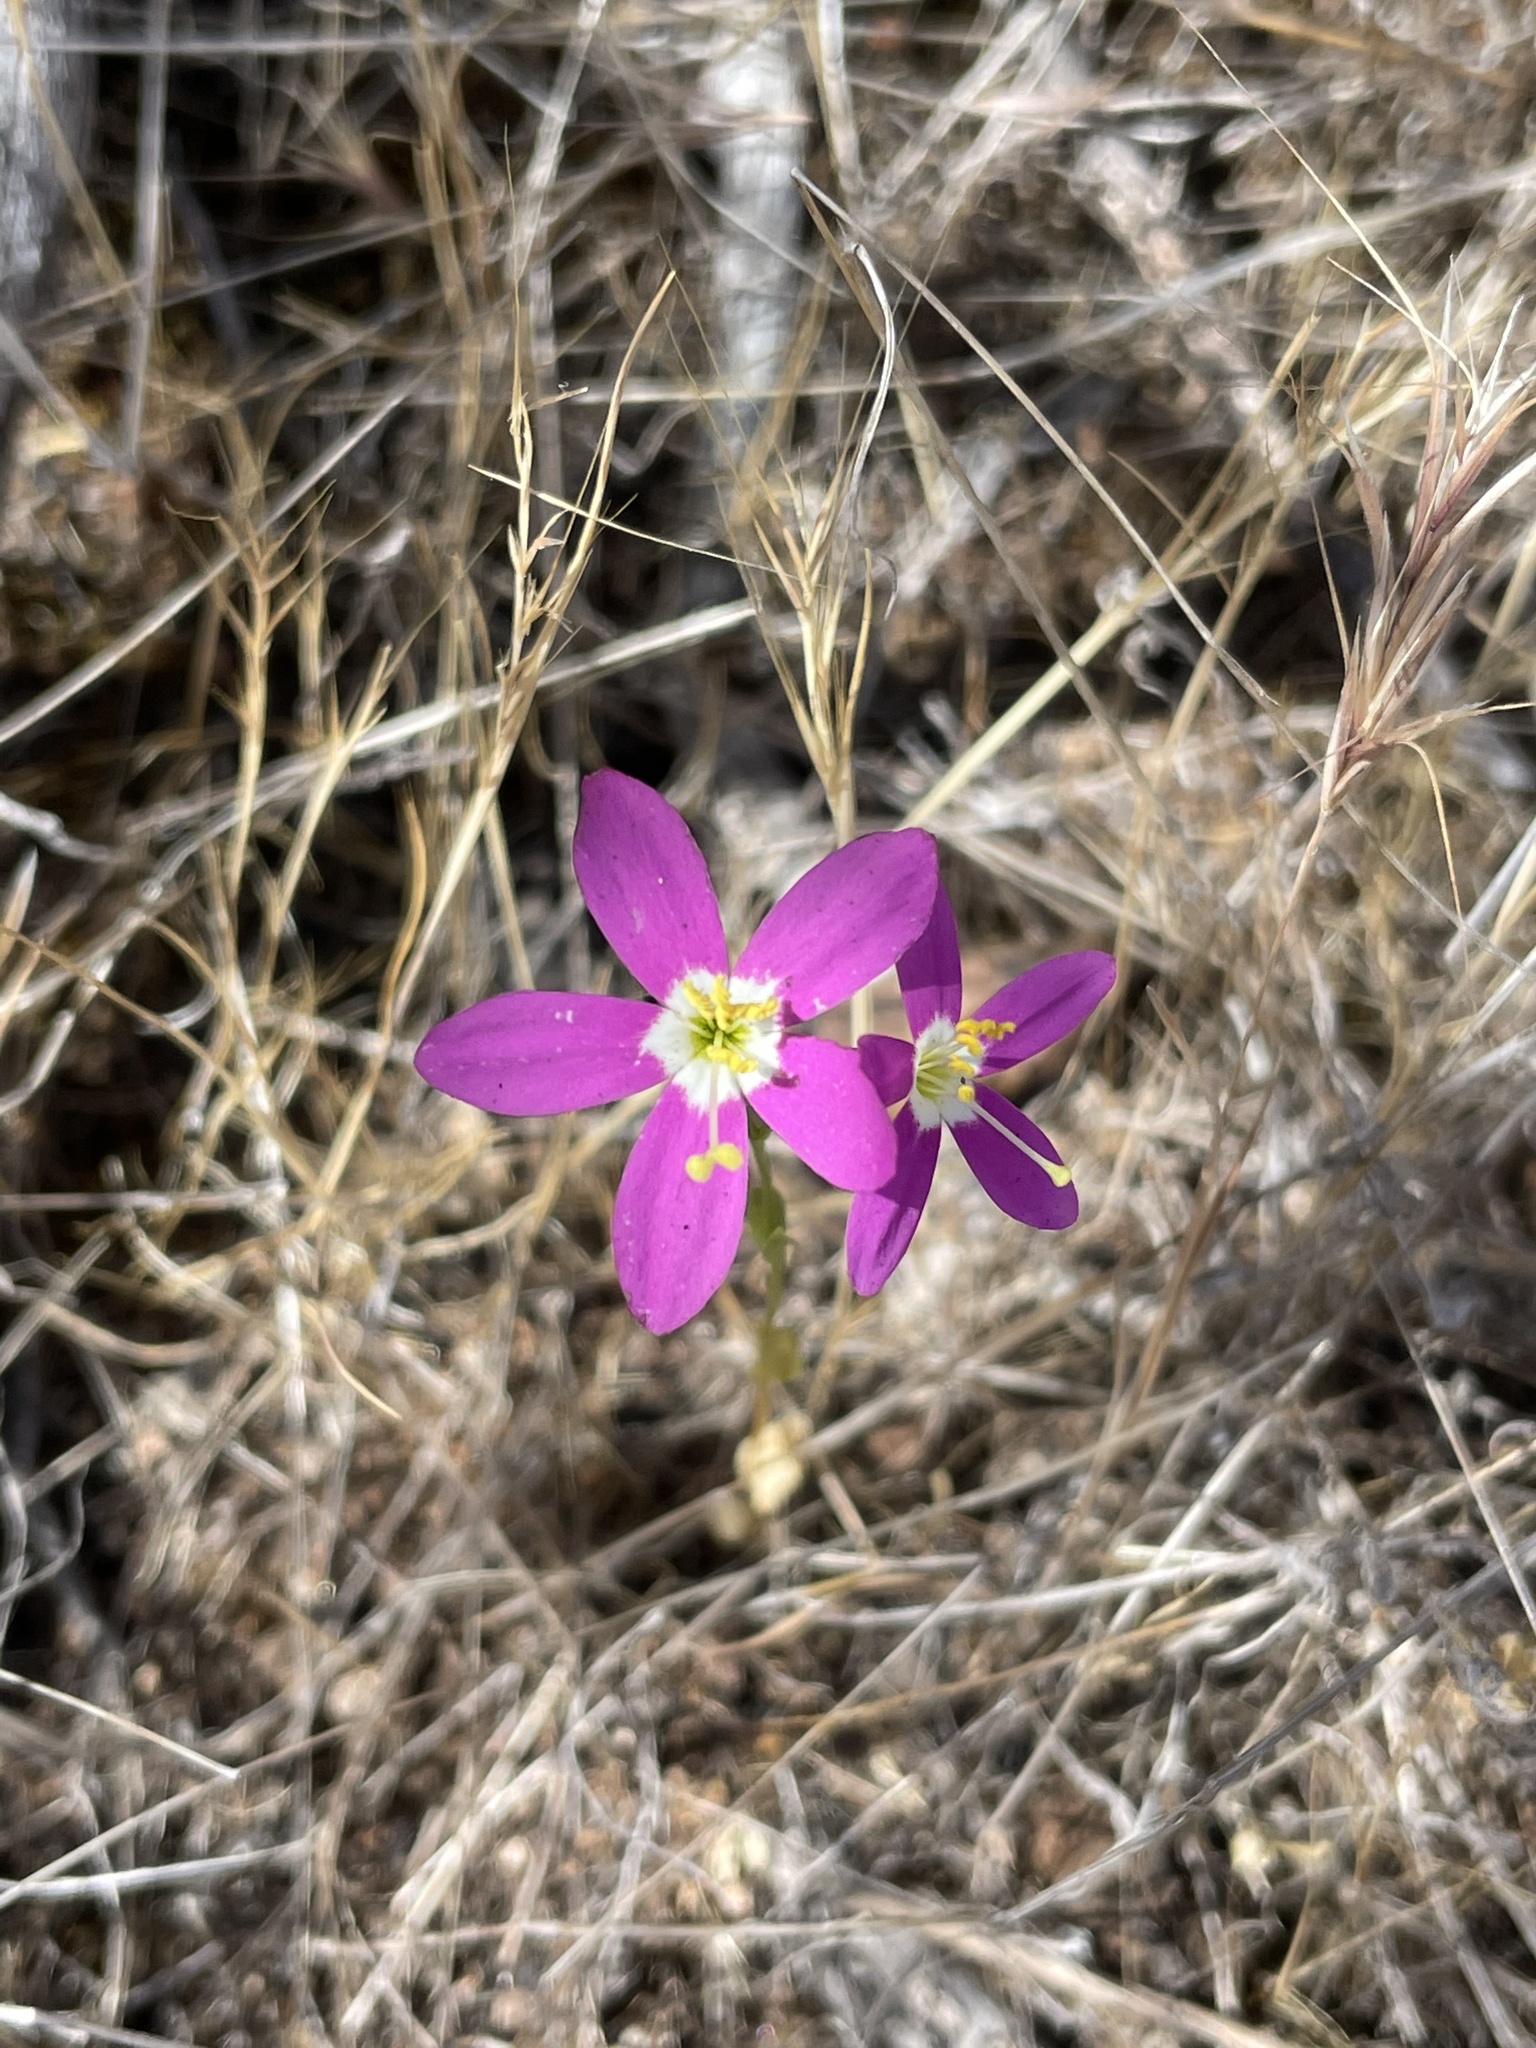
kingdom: Plantae
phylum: Tracheophyta
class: Magnoliopsida
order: Gentianales
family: Gentianaceae
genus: Zeltnera
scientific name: Zeltnera venusta
